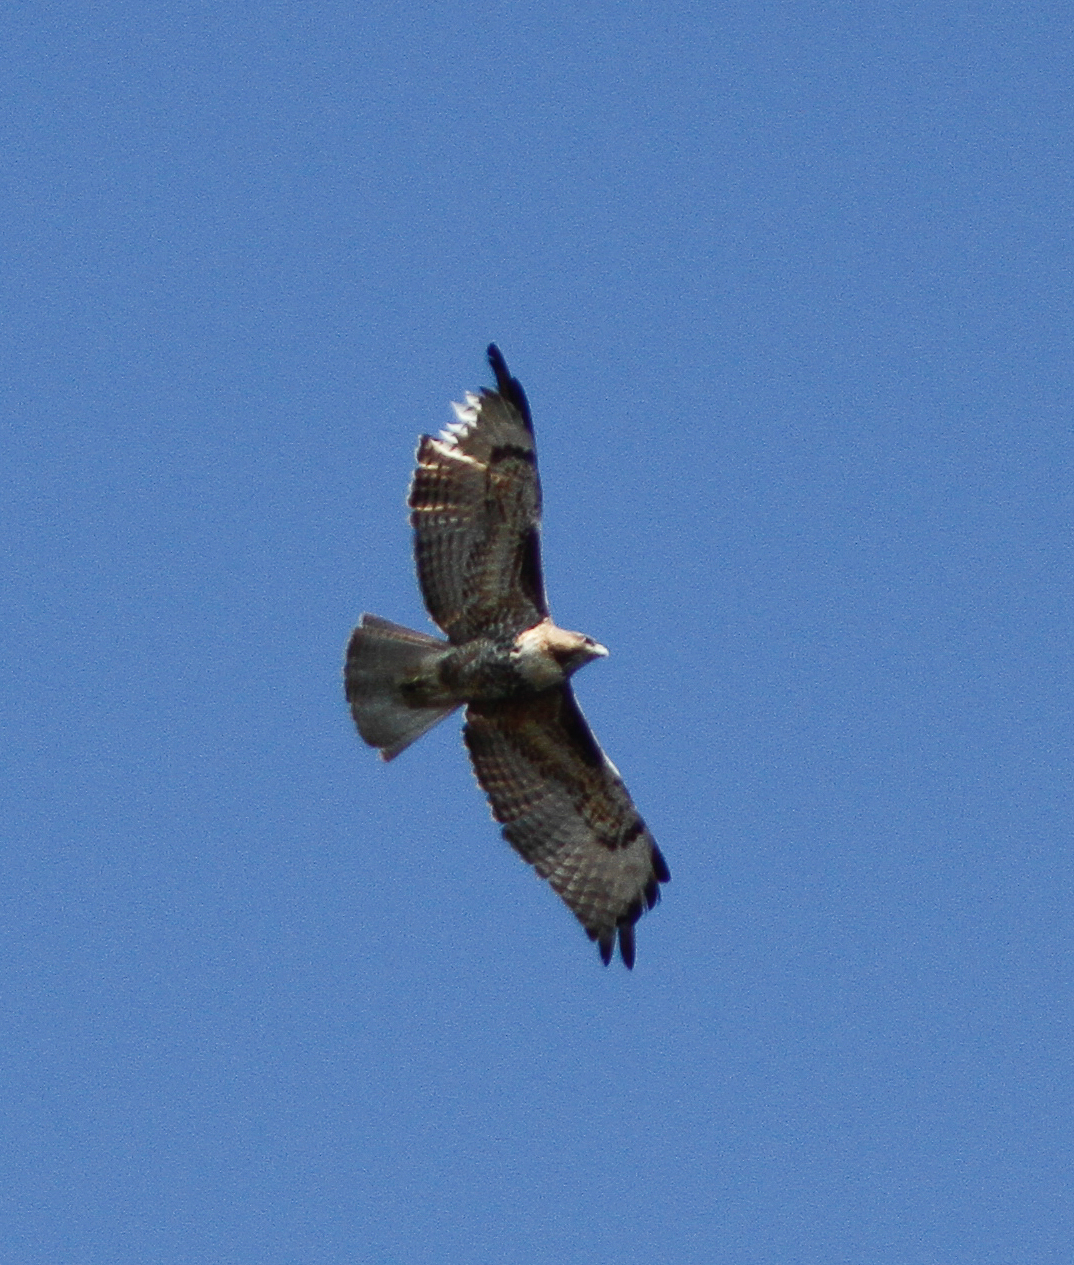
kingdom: Animalia
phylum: Chordata
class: Aves
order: Accipitriformes
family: Accipitridae
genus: Buteo
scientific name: Buteo jamaicensis
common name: Red-tailed hawk
